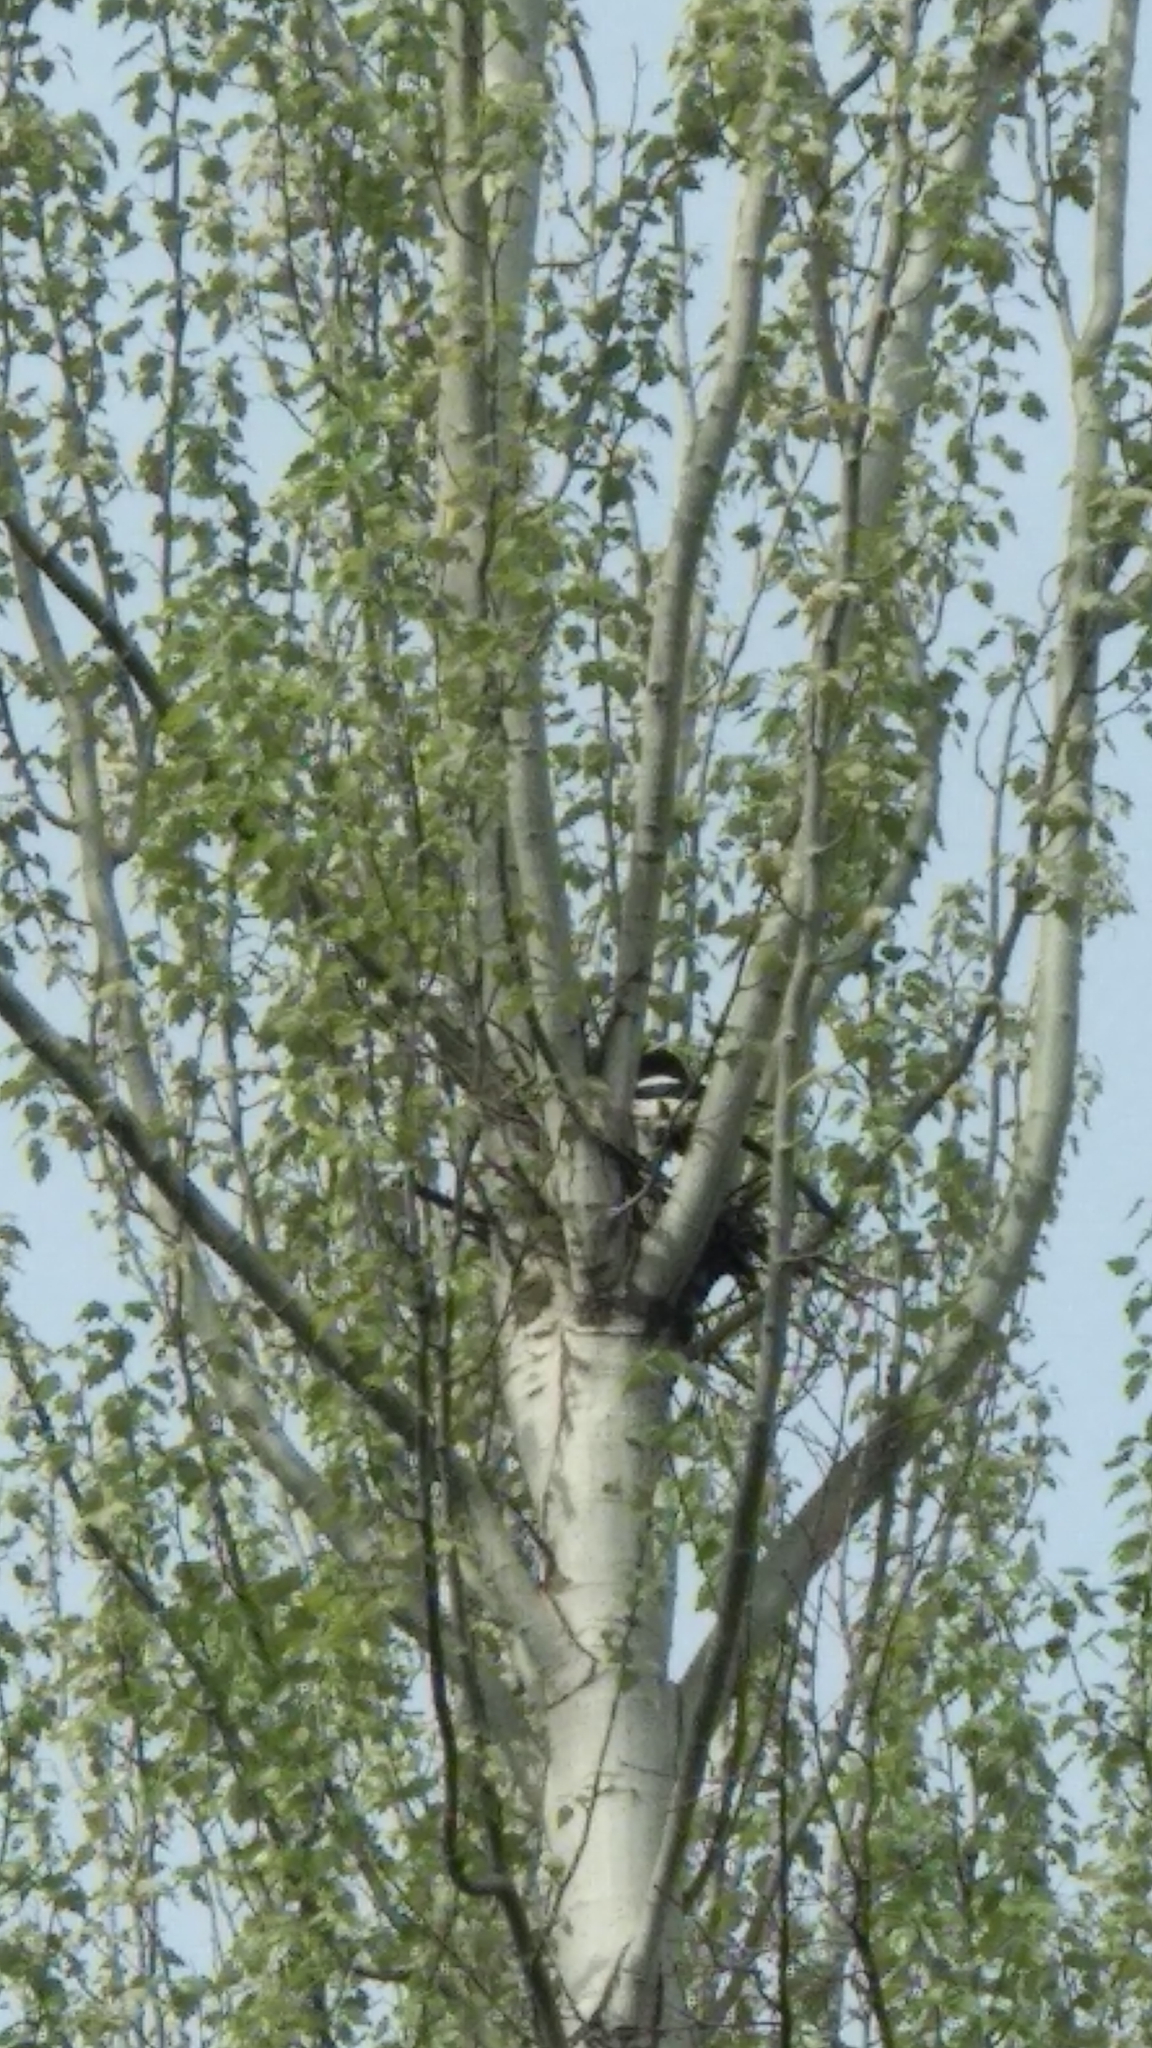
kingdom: Animalia
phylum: Chordata
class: Aves
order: Passeriformes
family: Corvidae
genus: Pica
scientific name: Pica pica
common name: Eurasian magpie
